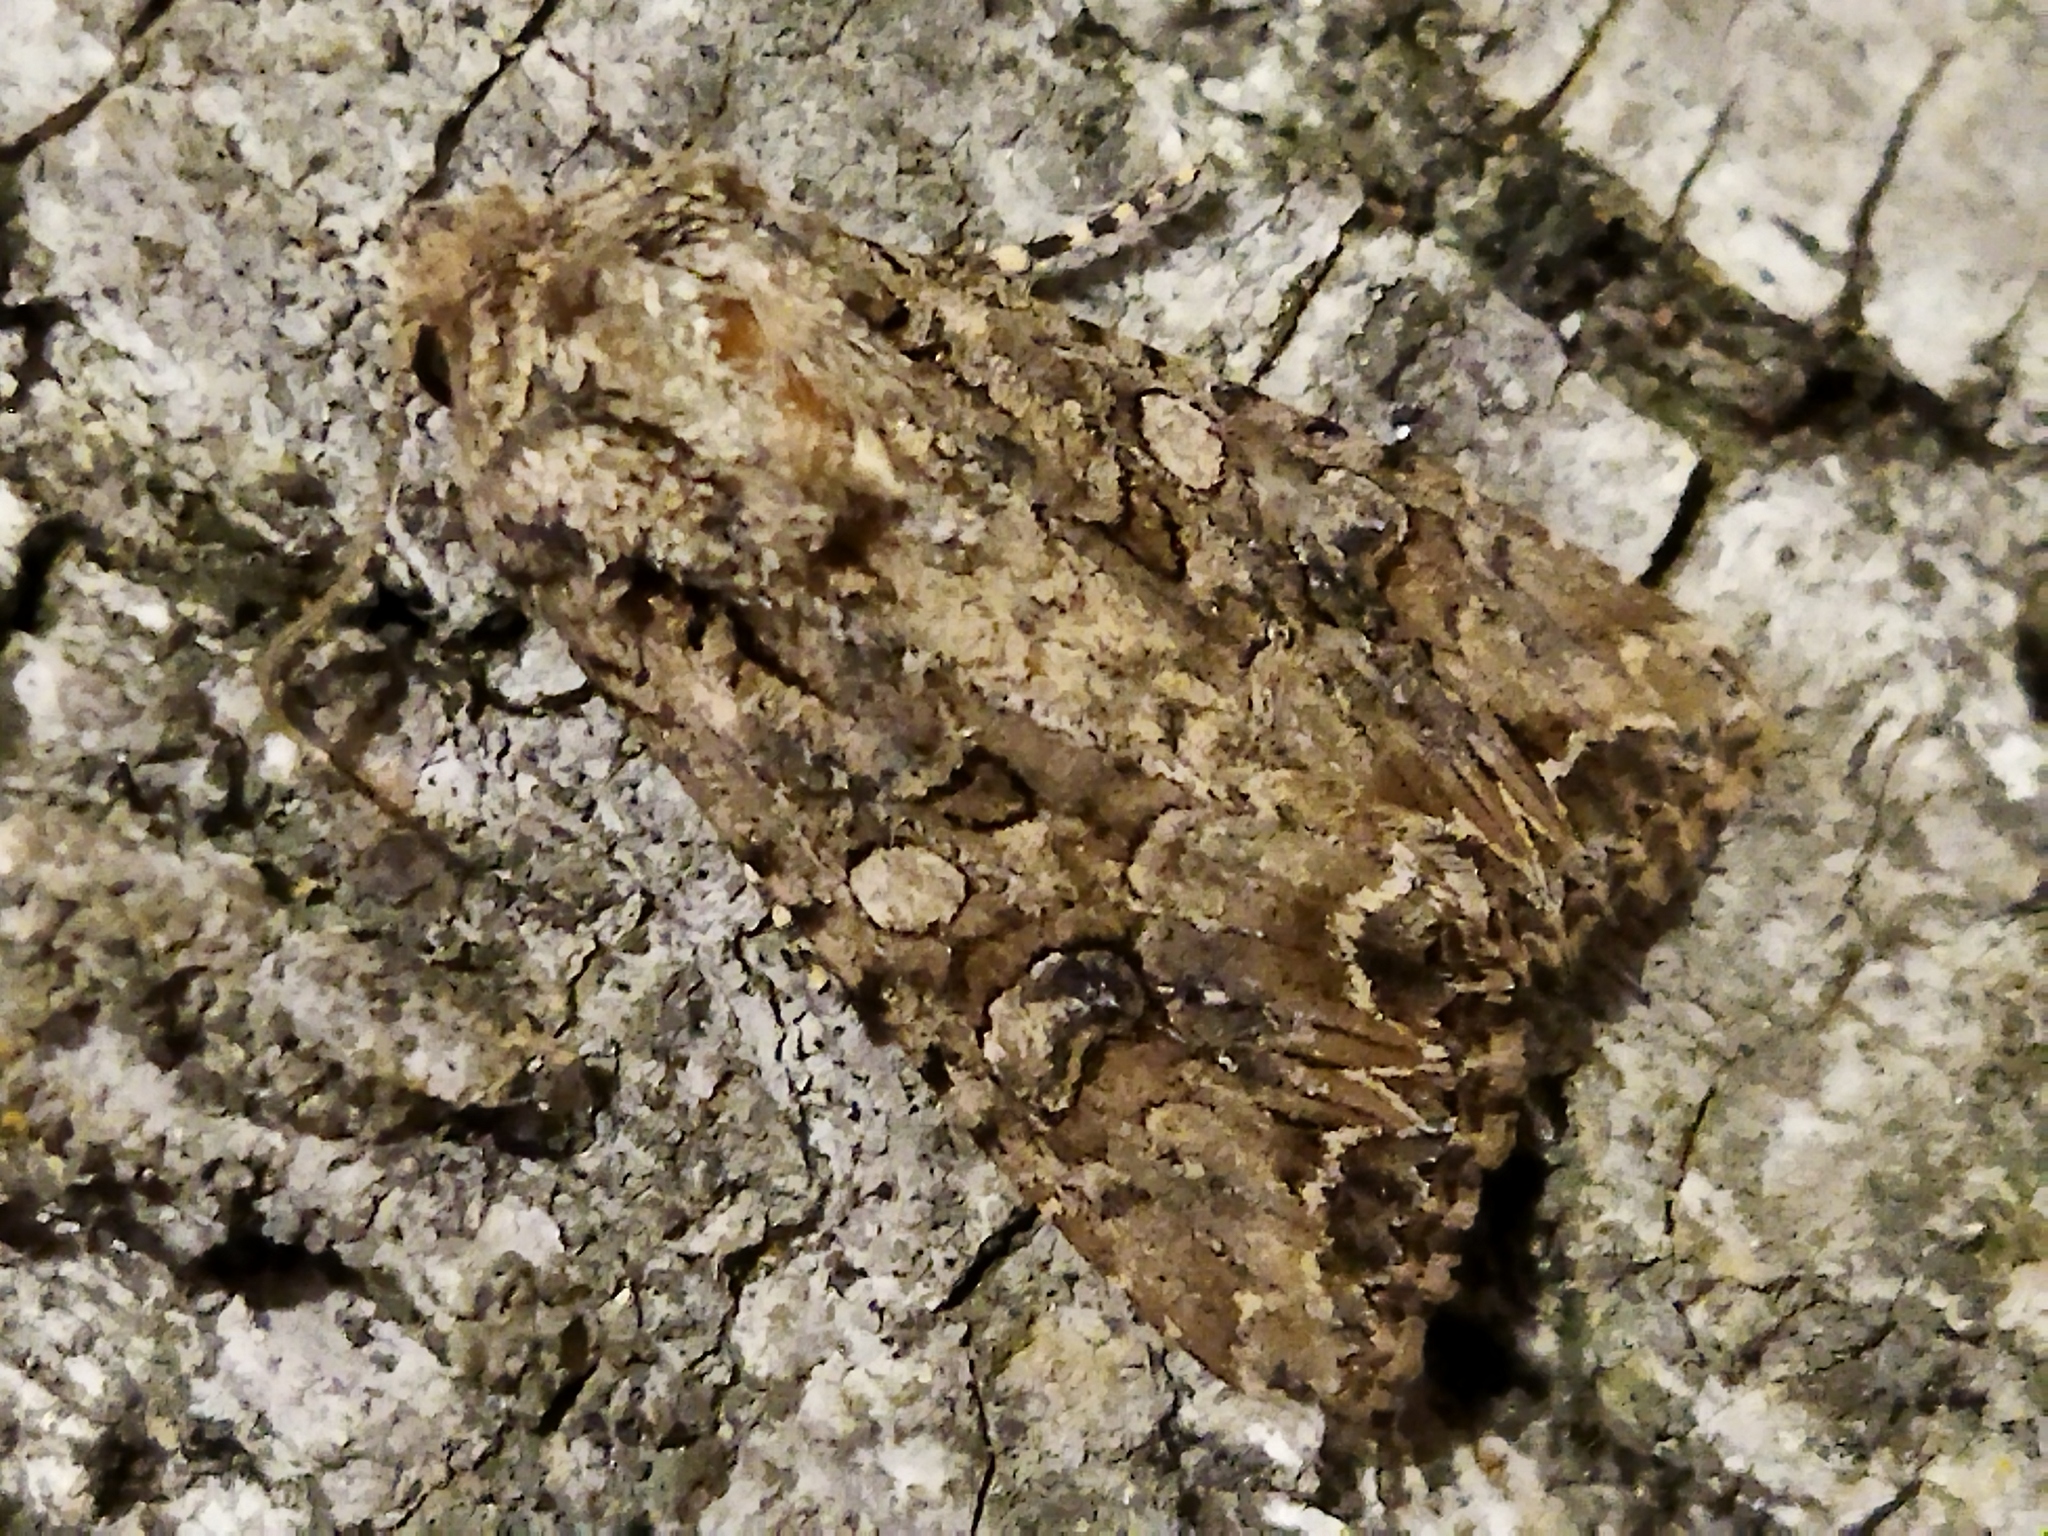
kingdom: Animalia
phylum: Arthropoda
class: Insecta
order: Lepidoptera
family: Noctuidae
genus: Anarta
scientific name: Anarta trifolii
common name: Clover cutworm moth
